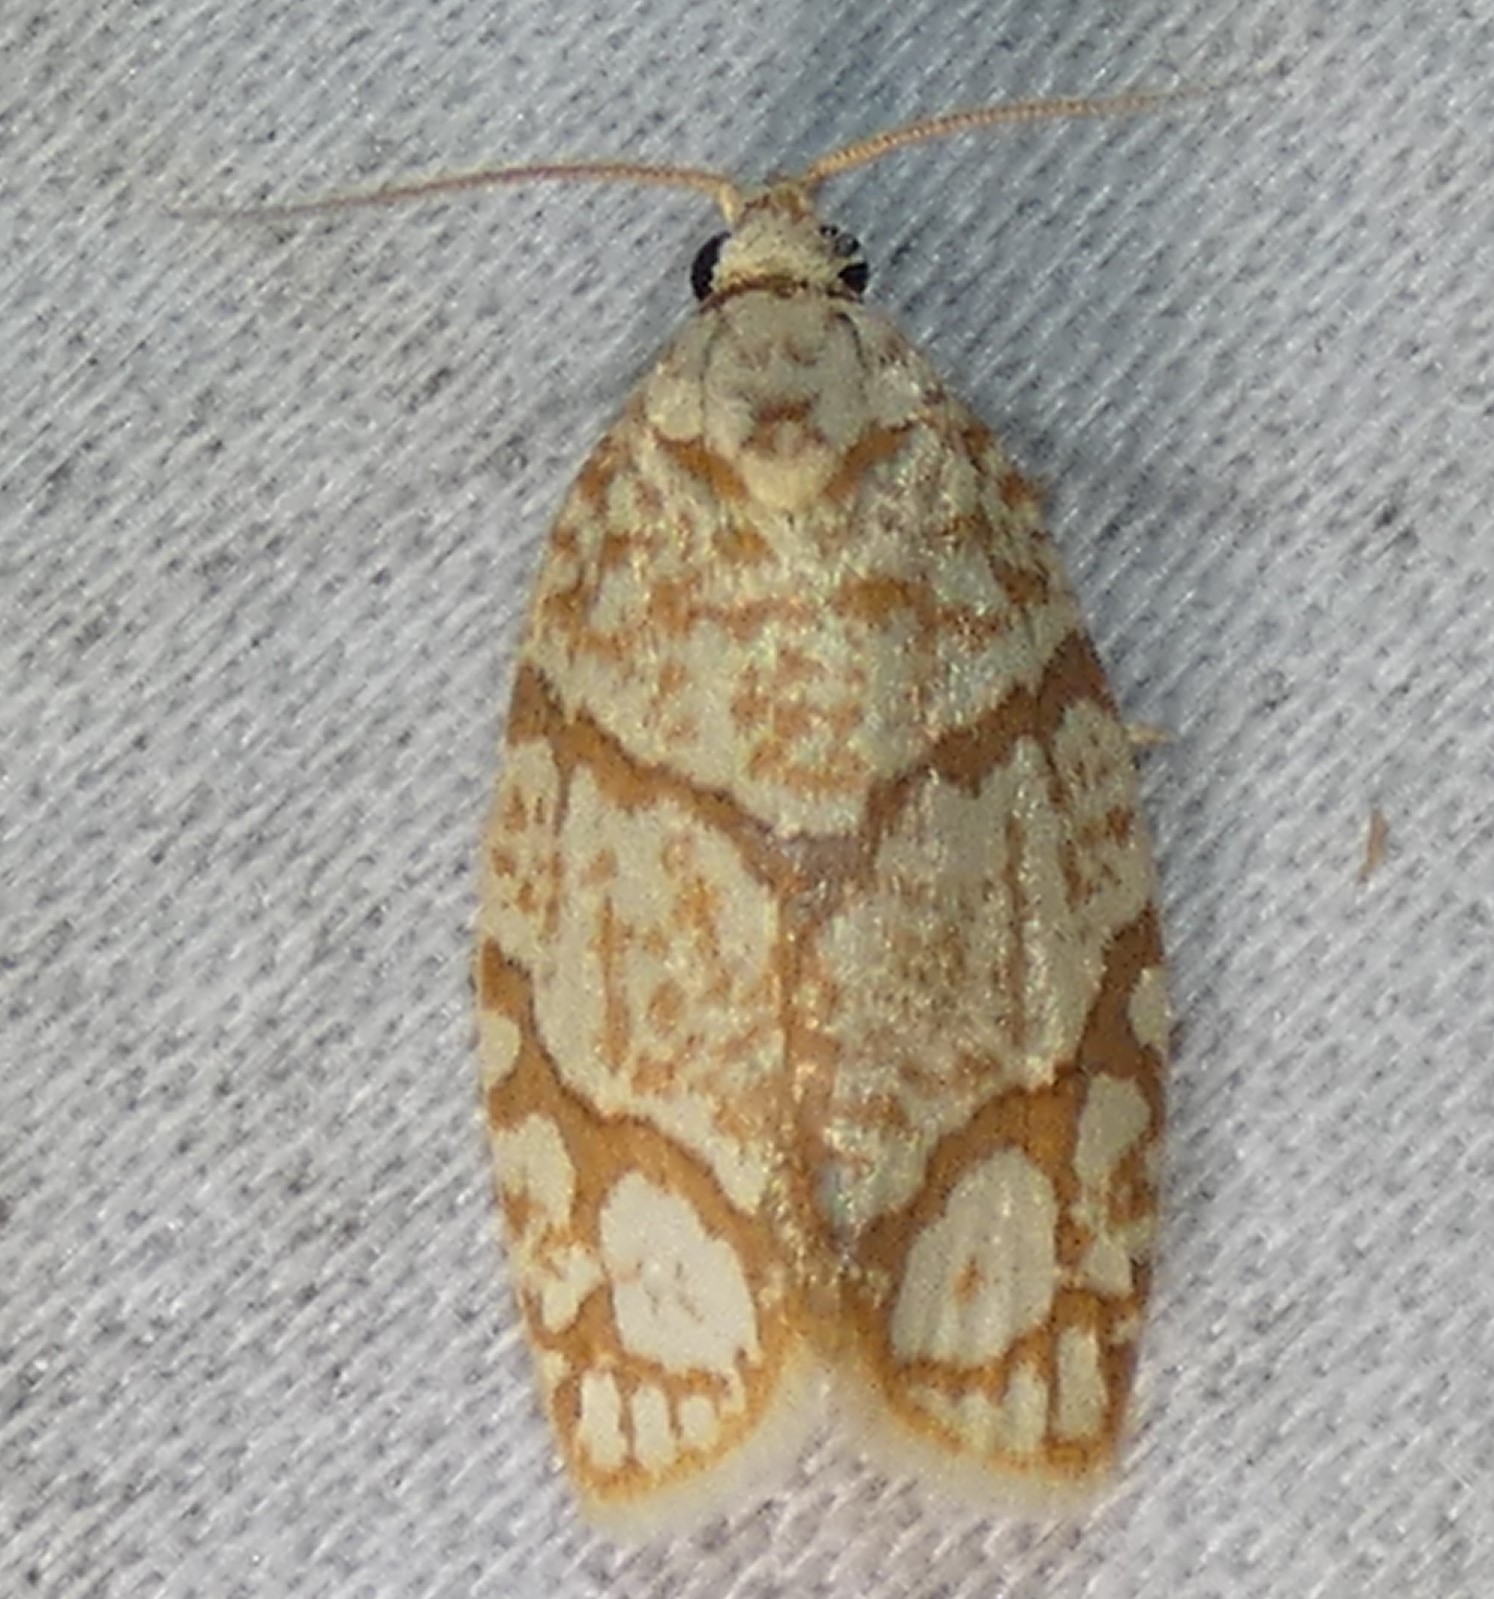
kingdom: Animalia
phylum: Arthropoda
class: Insecta
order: Lepidoptera
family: Tortricidae
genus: Argyrotaenia
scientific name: Argyrotaenia quercifoliana
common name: Yellow-winged oak leafroller moth
